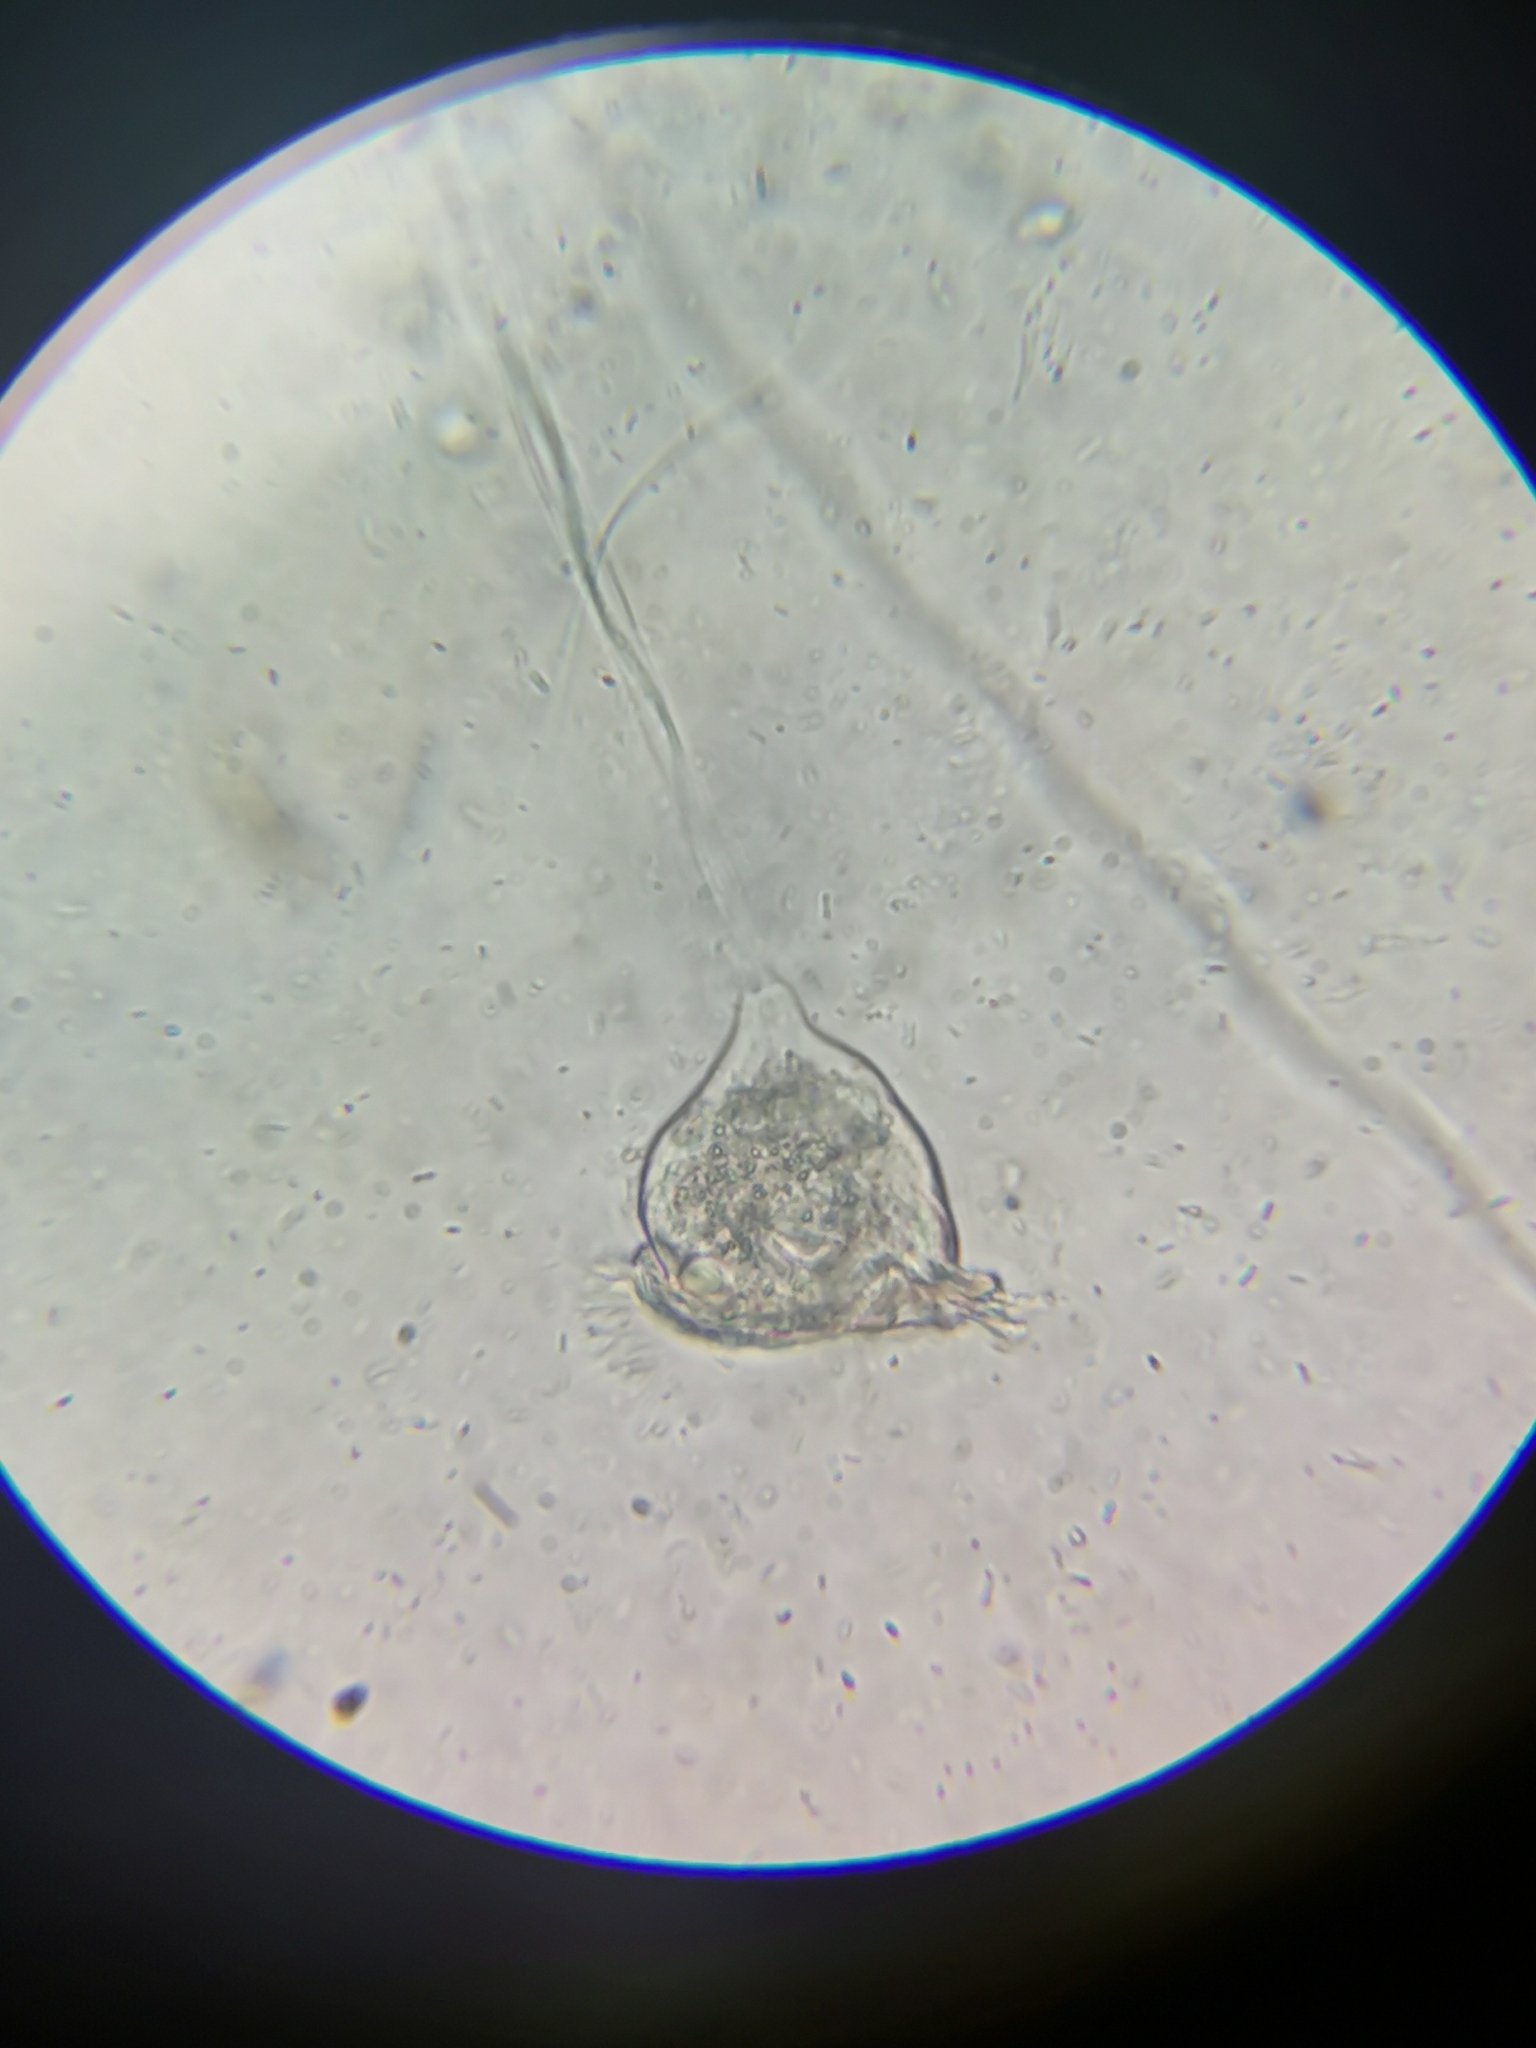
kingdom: Chromista
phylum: Ciliophora
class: Oligohymenophorea
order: Peritrichida
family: Vorticellidae
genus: Vorticella
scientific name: Vorticella campanulla
